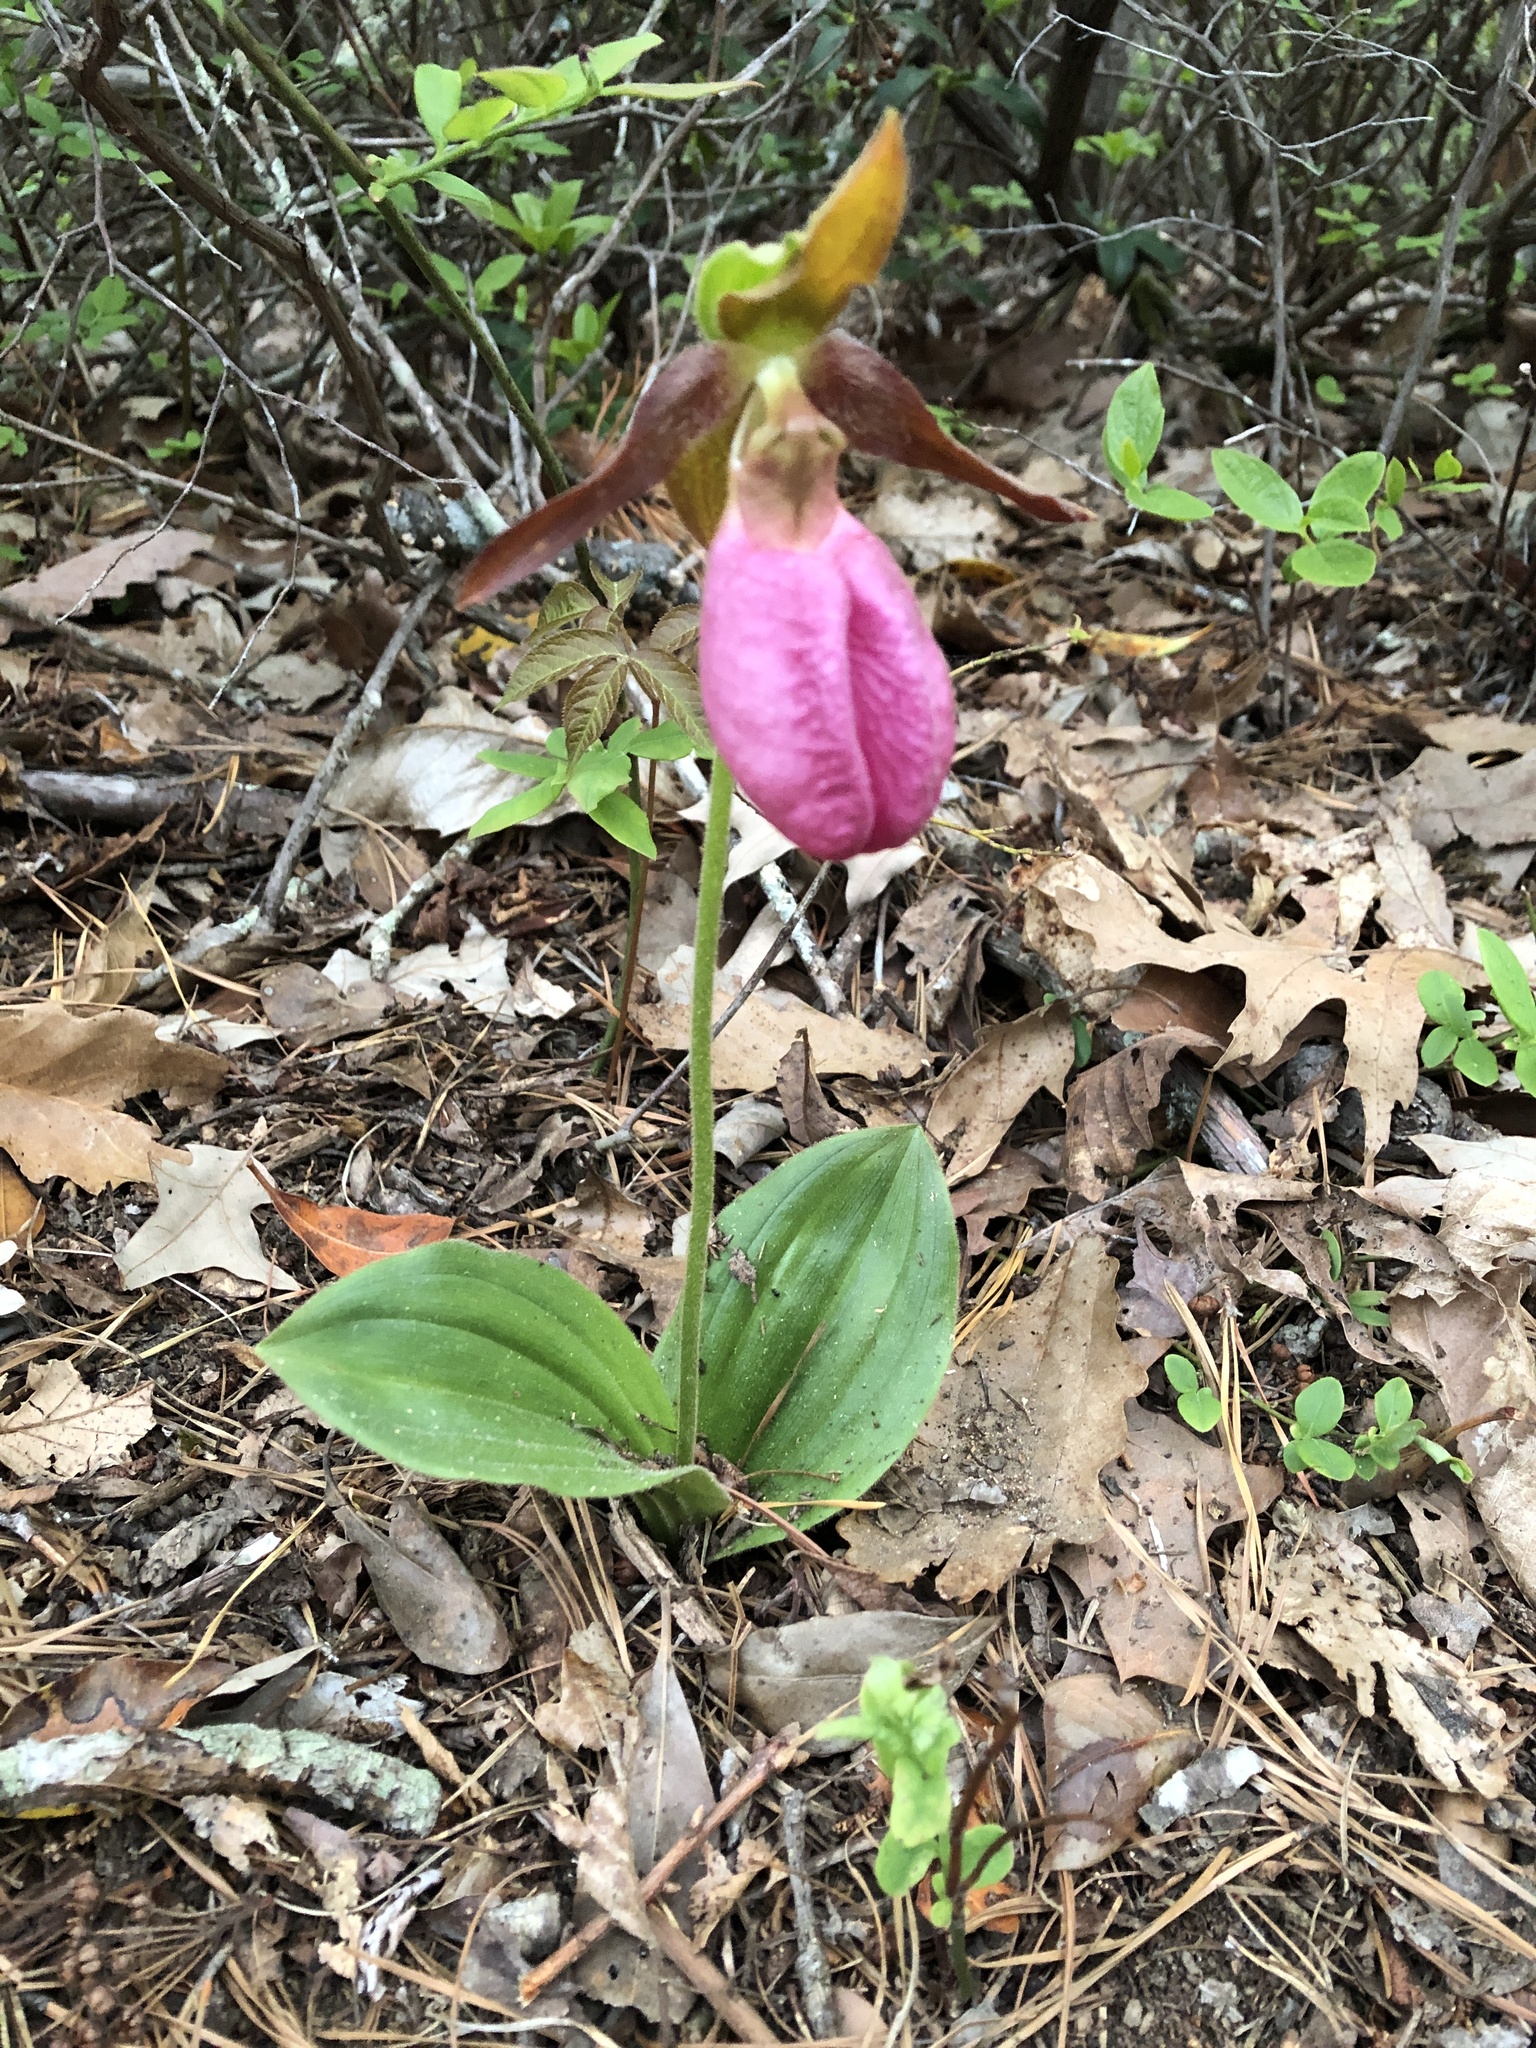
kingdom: Plantae
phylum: Tracheophyta
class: Liliopsida
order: Asparagales
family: Orchidaceae
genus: Cypripedium
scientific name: Cypripedium acaule
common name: Pink lady's-slipper
